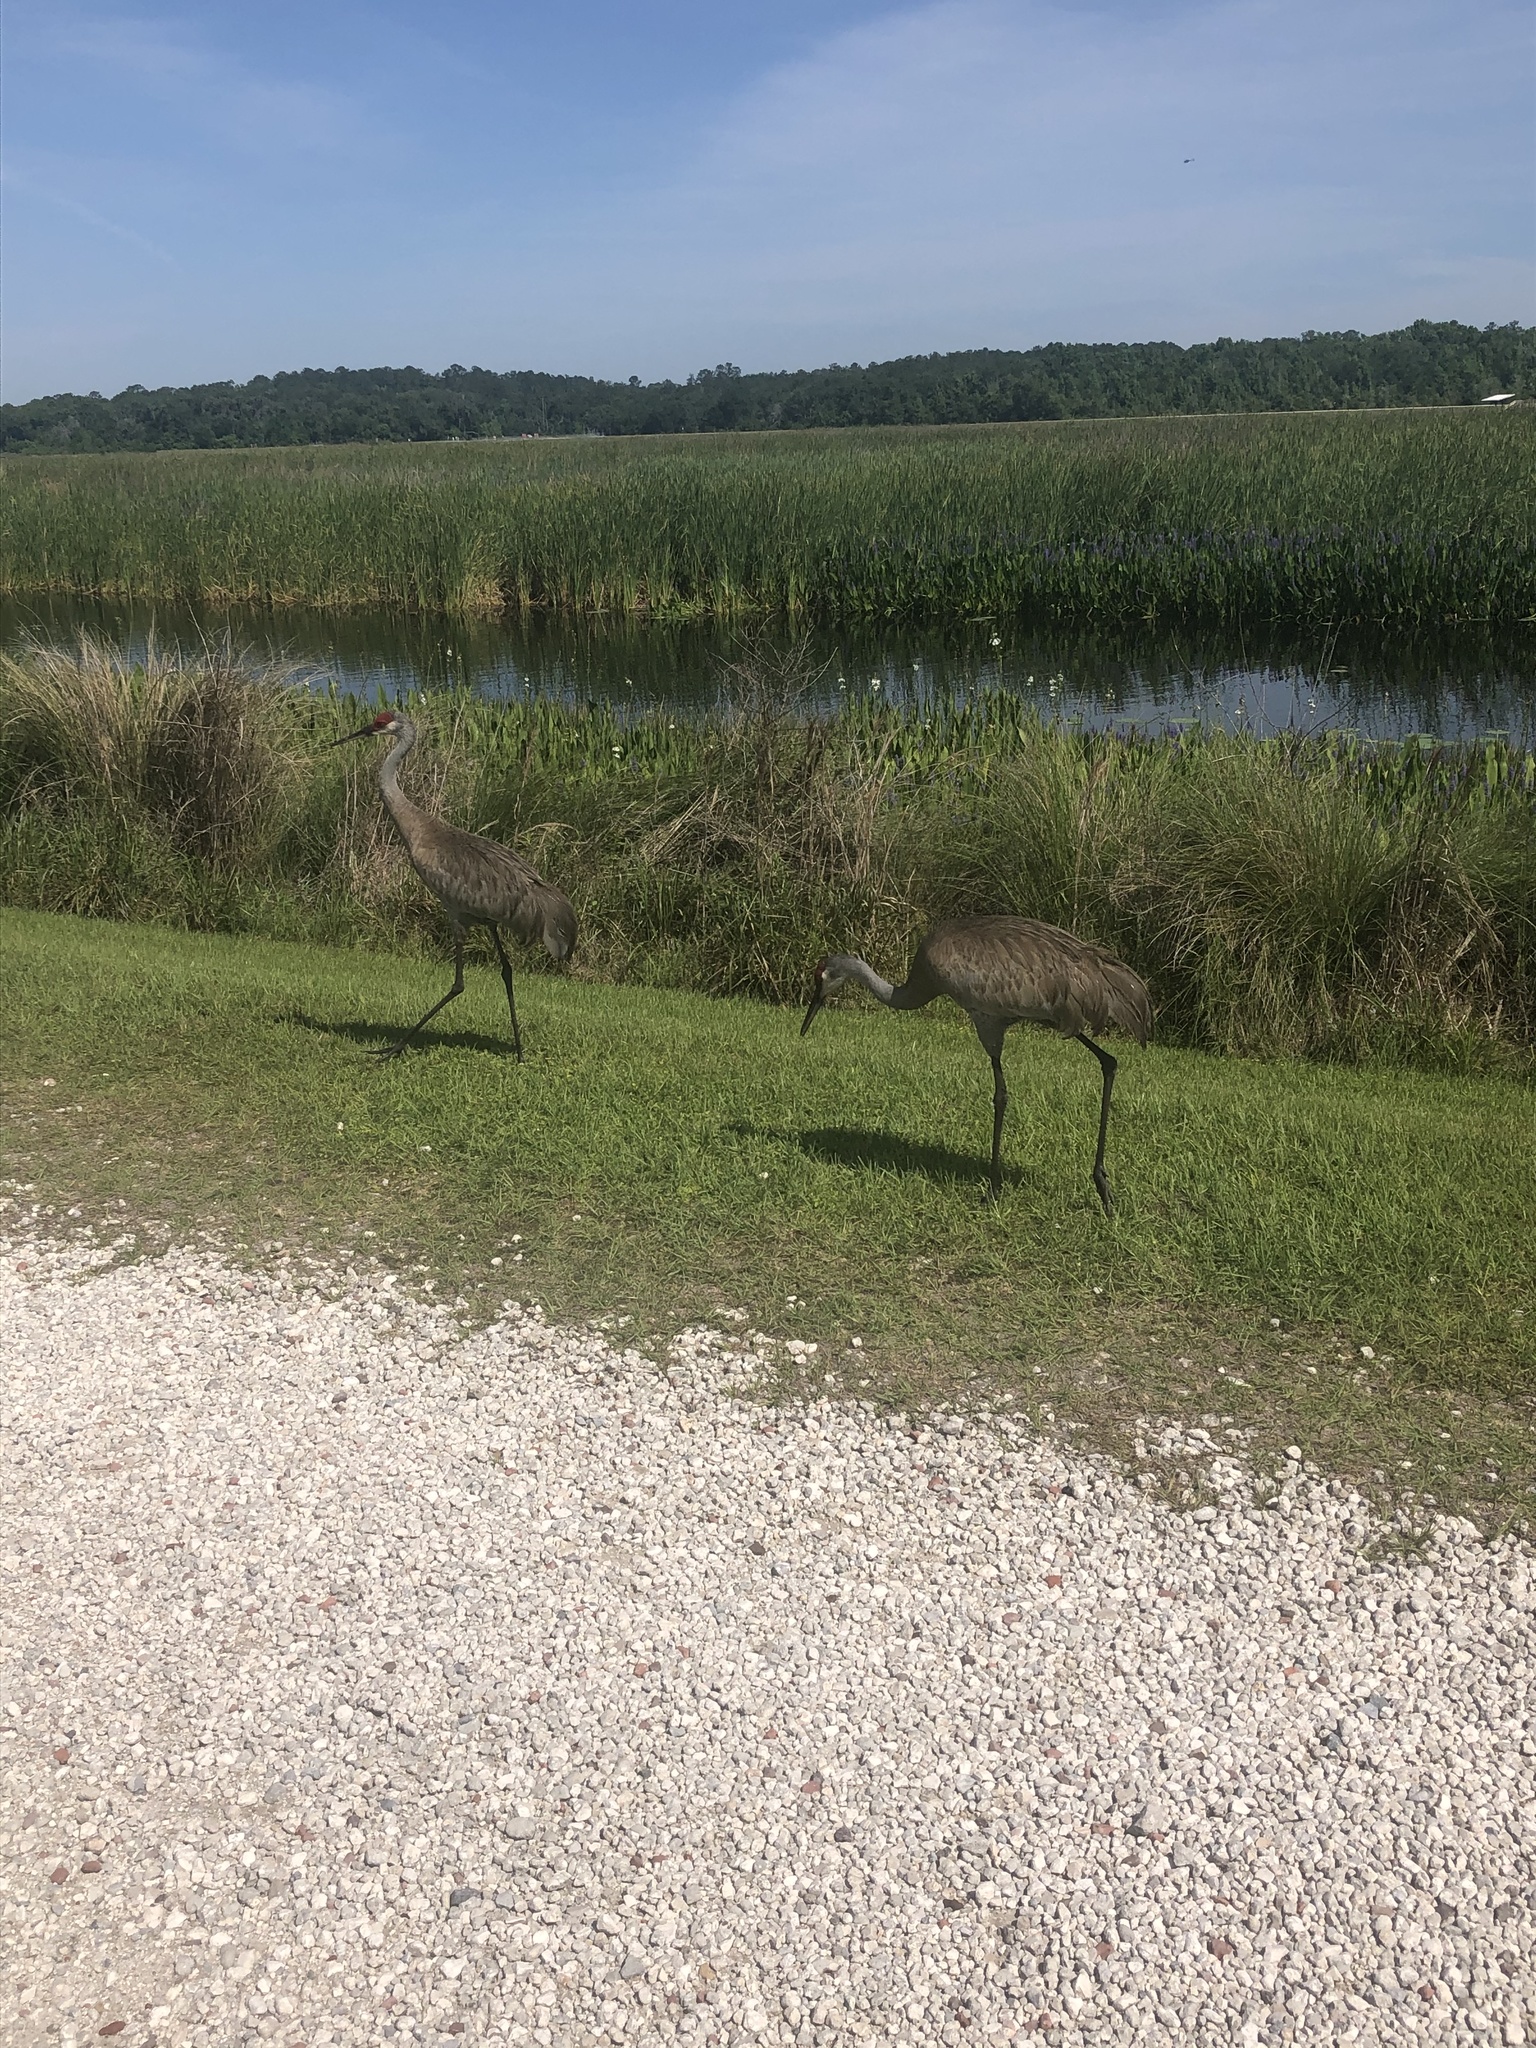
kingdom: Animalia
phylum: Chordata
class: Aves
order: Gruiformes
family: Gruidae
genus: Grus
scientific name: Grus canadensis
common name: Sandhill crane
